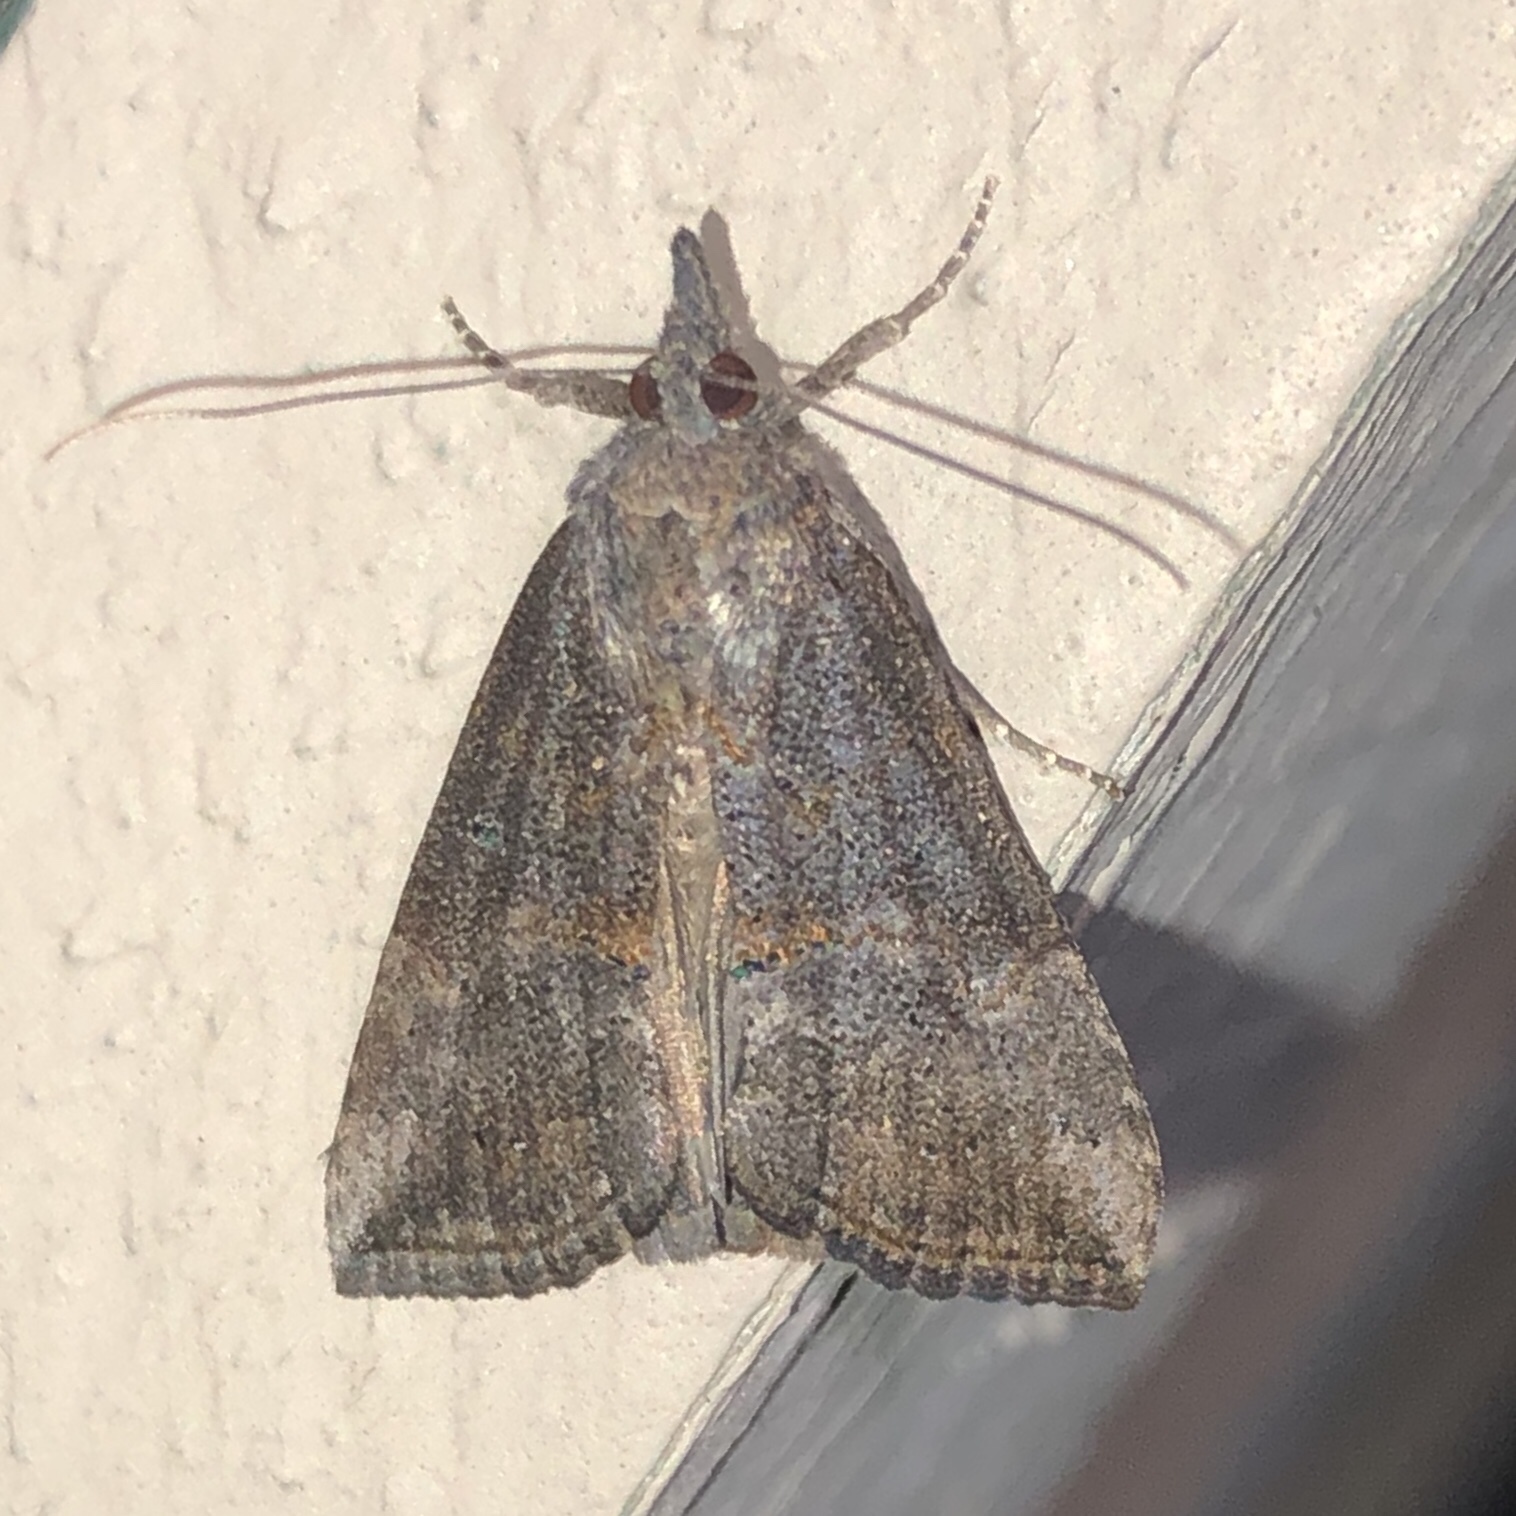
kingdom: Animalia
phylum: Arthropoda
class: Insecta
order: Lepidoptera
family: Erebidae
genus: Hypena
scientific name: Hypena scabra
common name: Green cloverworm
